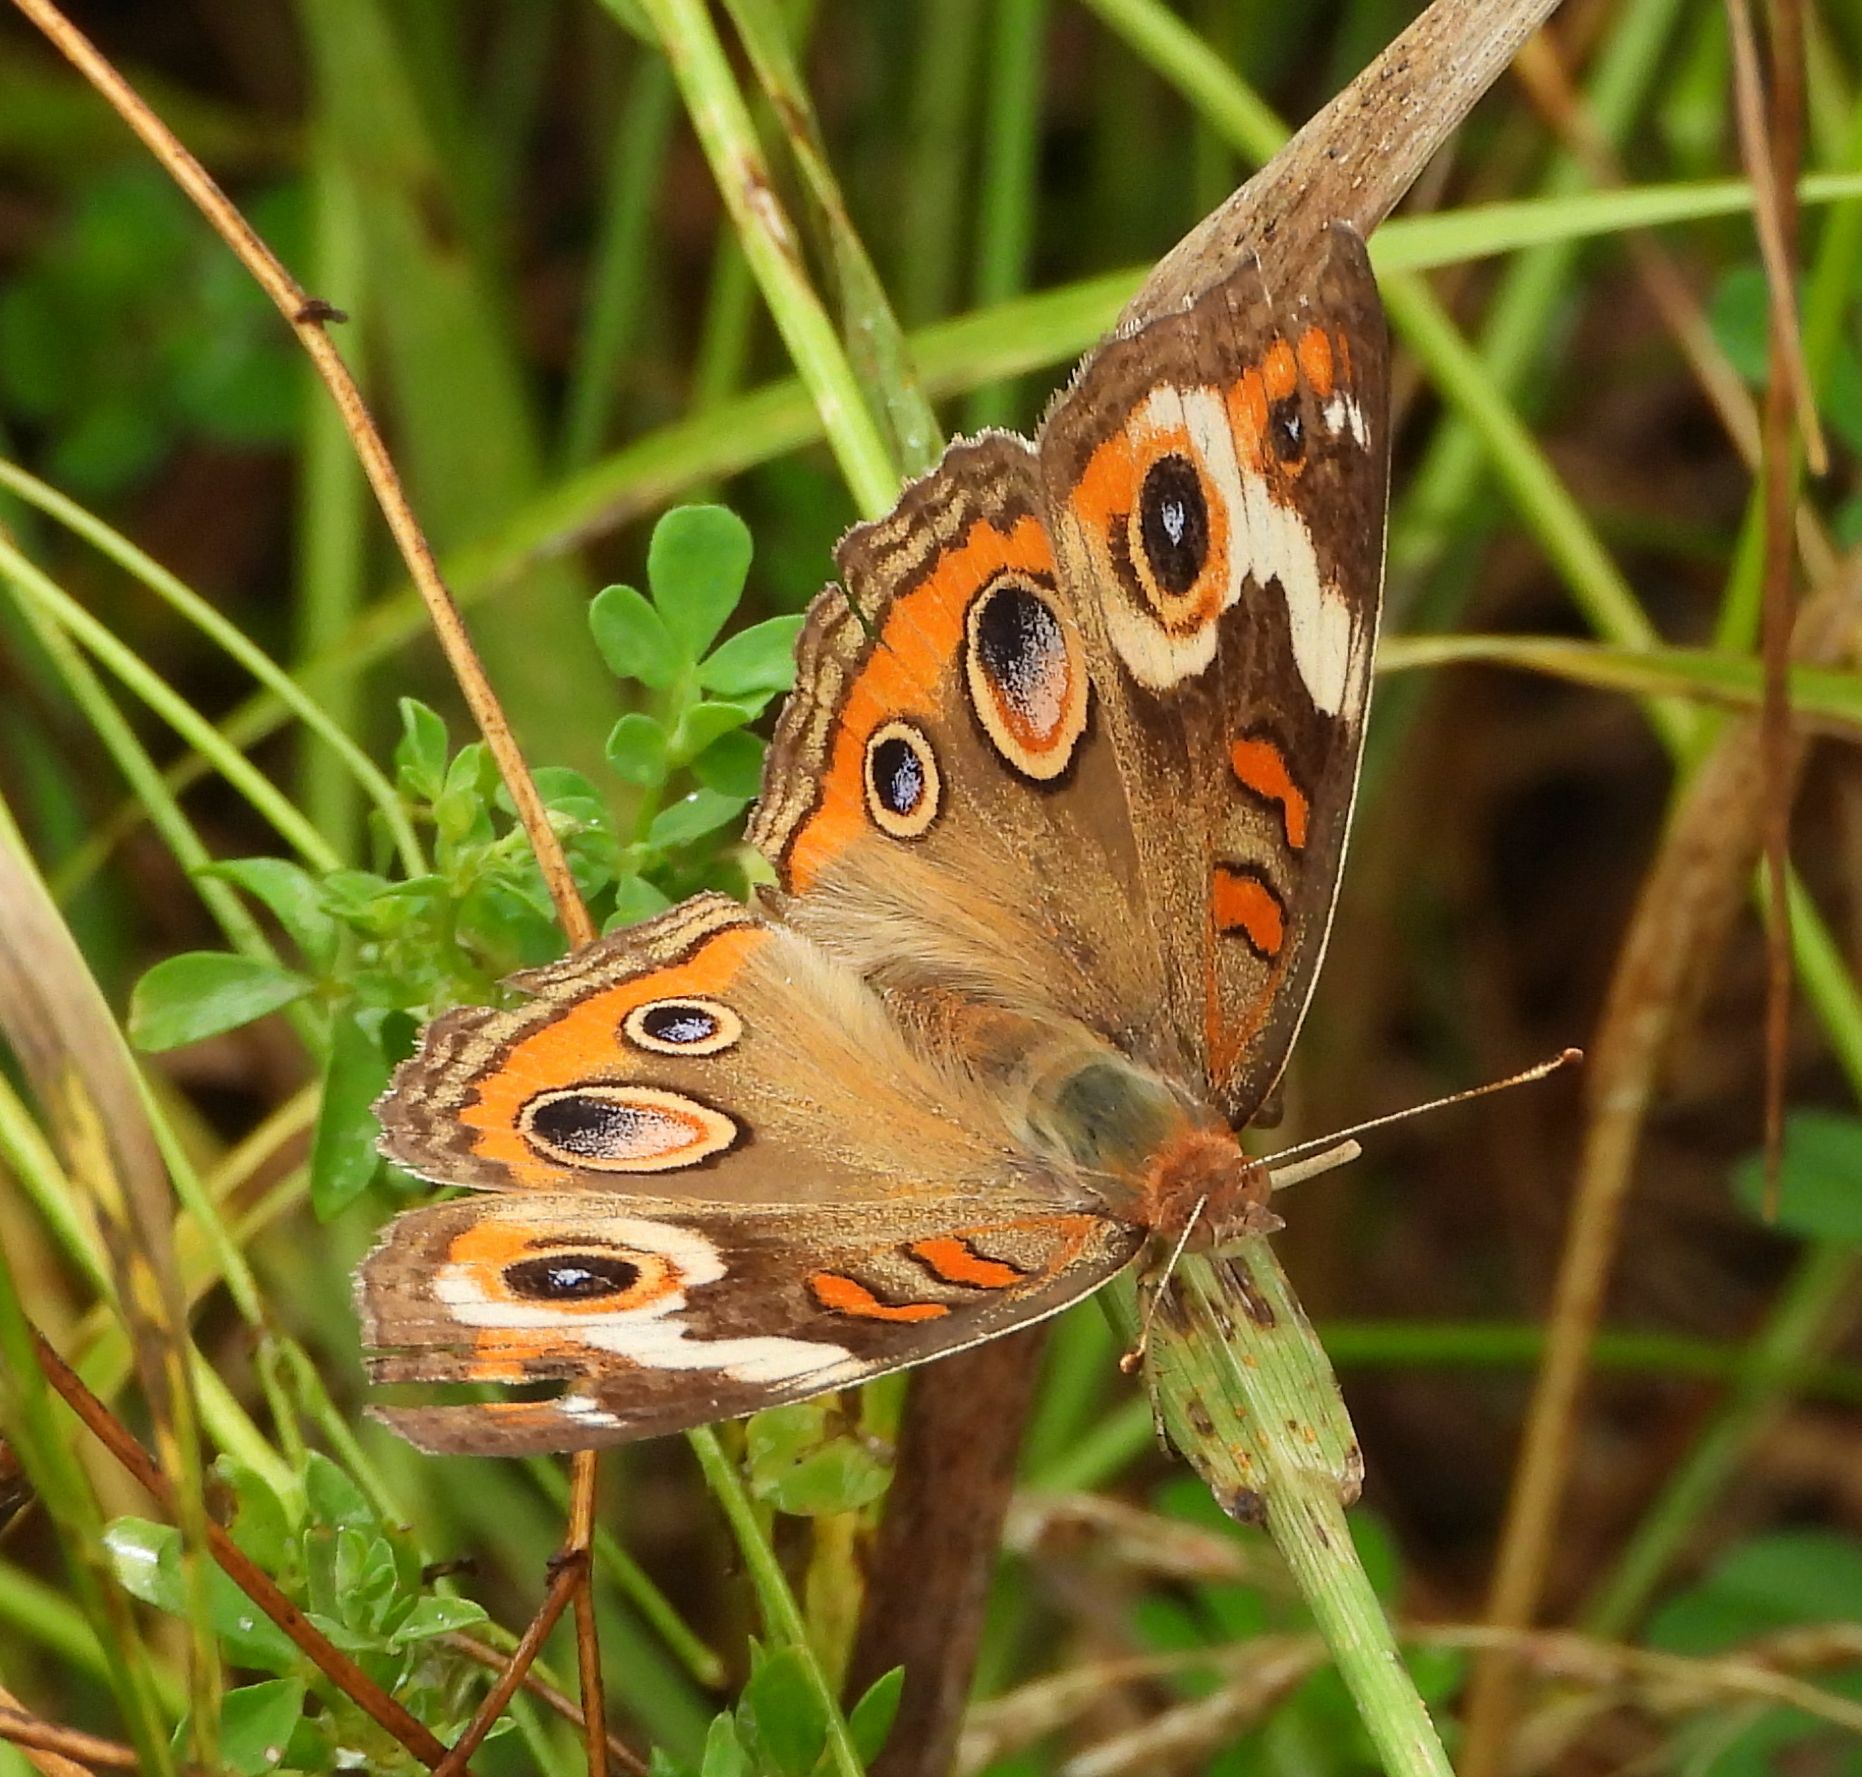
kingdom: Animalia
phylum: Arthropoda
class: Insecta
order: Lepidoptera
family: Nymphalidae
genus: Junonia
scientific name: Junonia coenia
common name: Common buckeye
